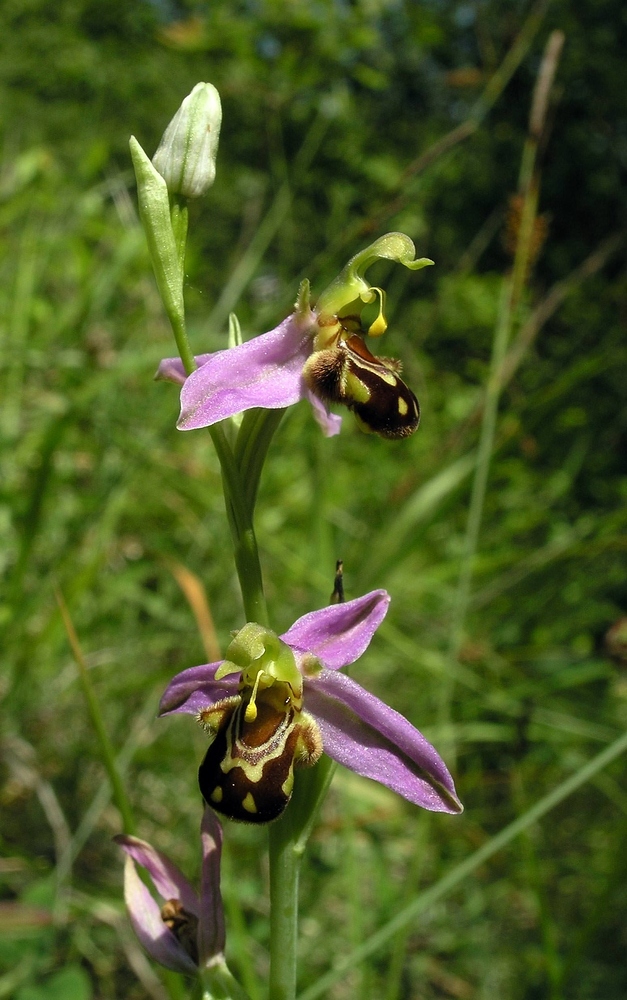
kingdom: Plantae
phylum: Tracheophyta
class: Liliopsida
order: Asparagales
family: Orchidaceae
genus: Ophrys
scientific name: Ophrys apifera
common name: Bee orchid
